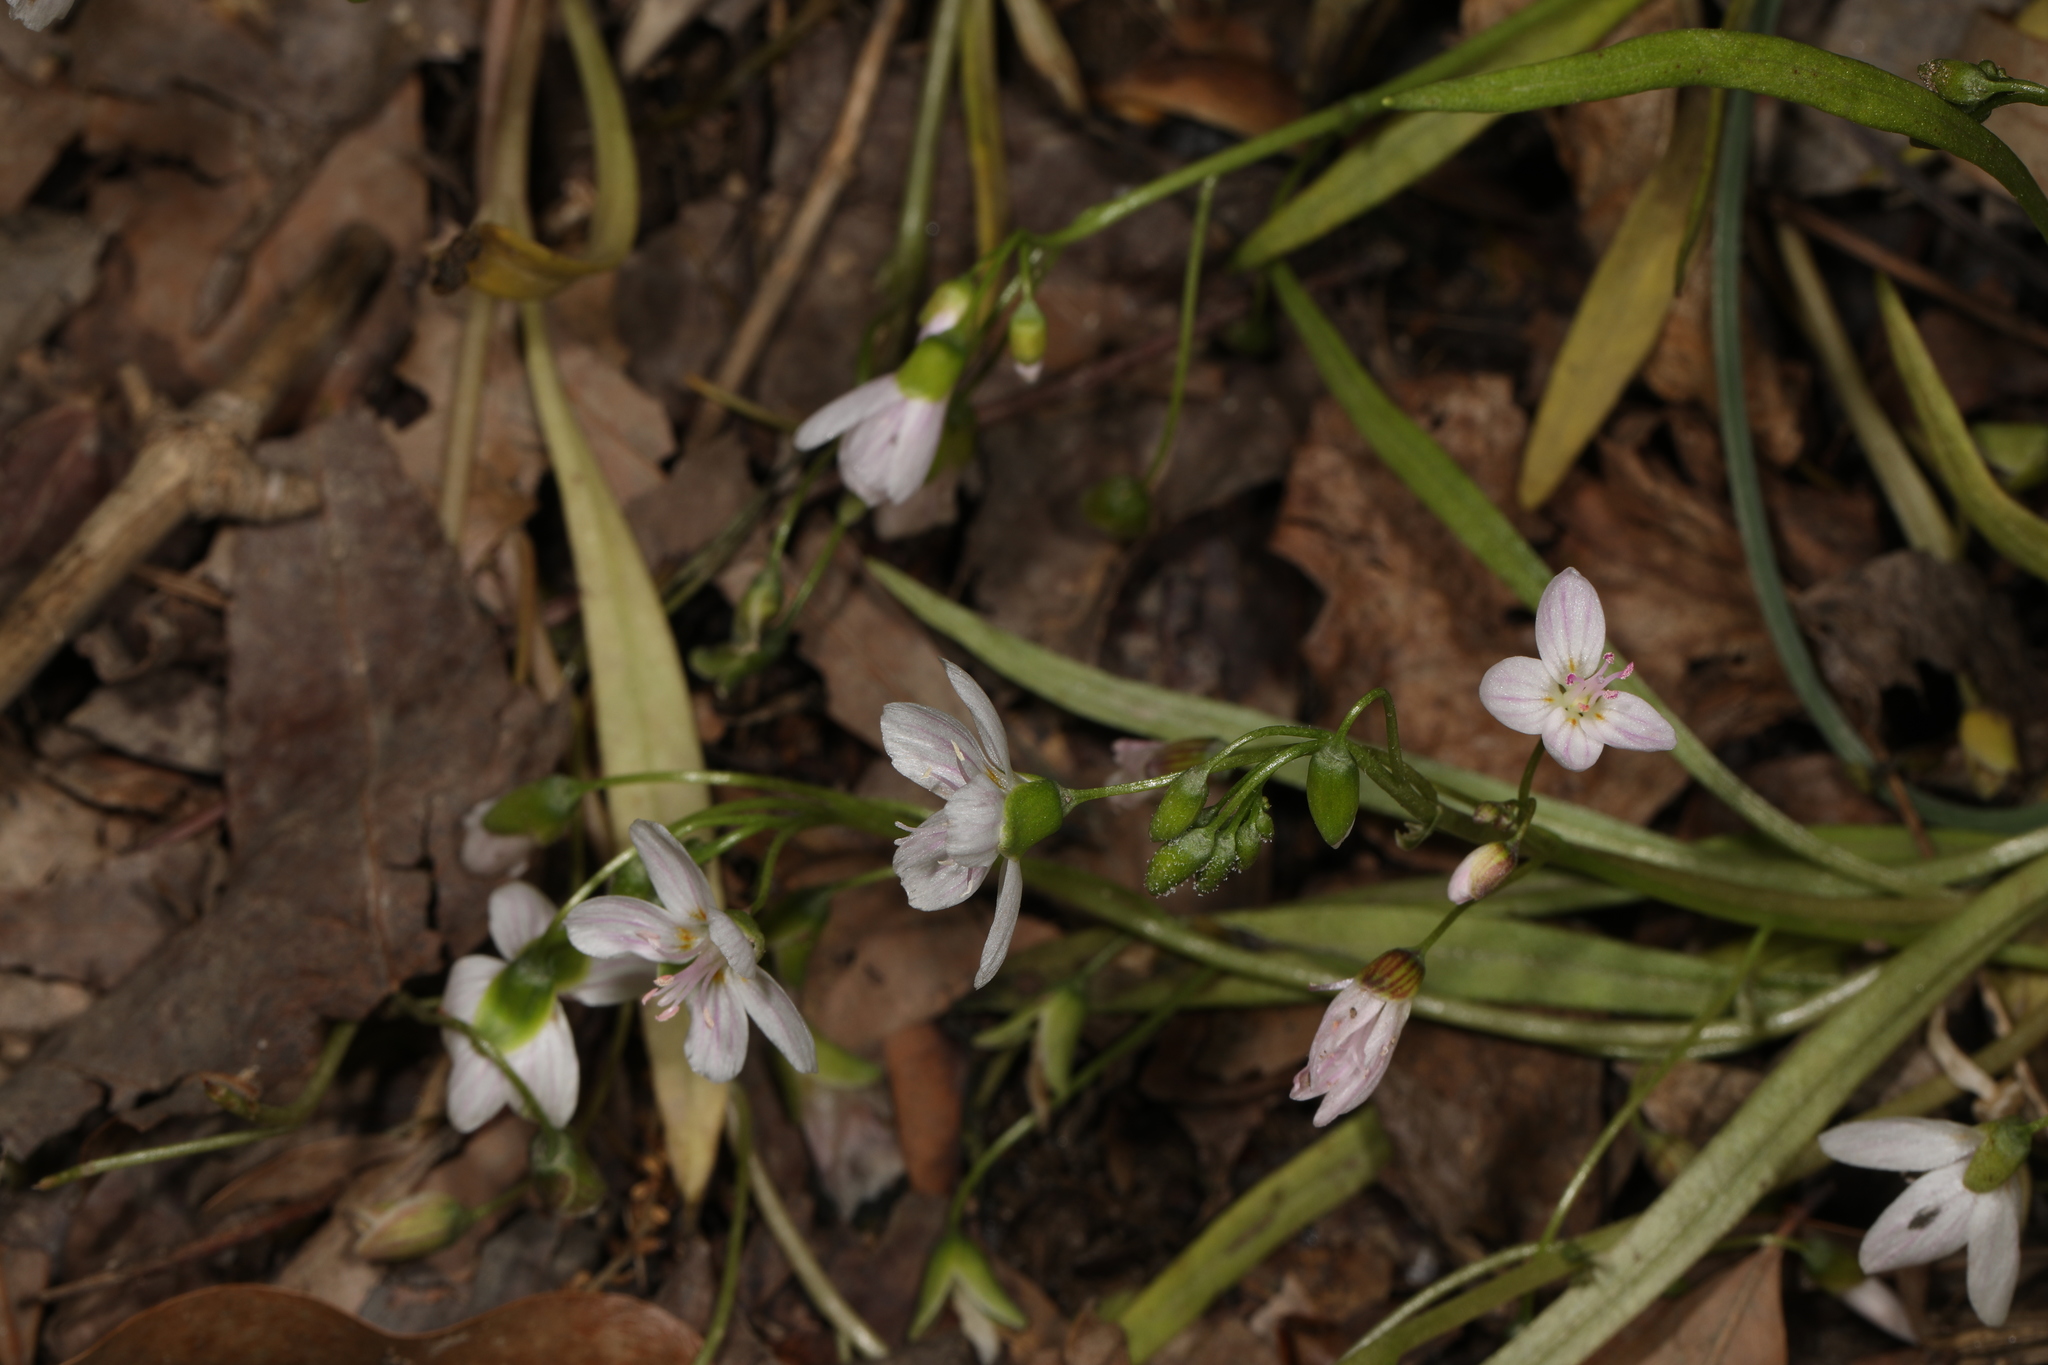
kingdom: Plantae
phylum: Tracheophyta
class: Magnoliopsida
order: Caryophyllales
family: Montiaceae
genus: Claytonia
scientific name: Claytonia virginica
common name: Virginia springbeauty
